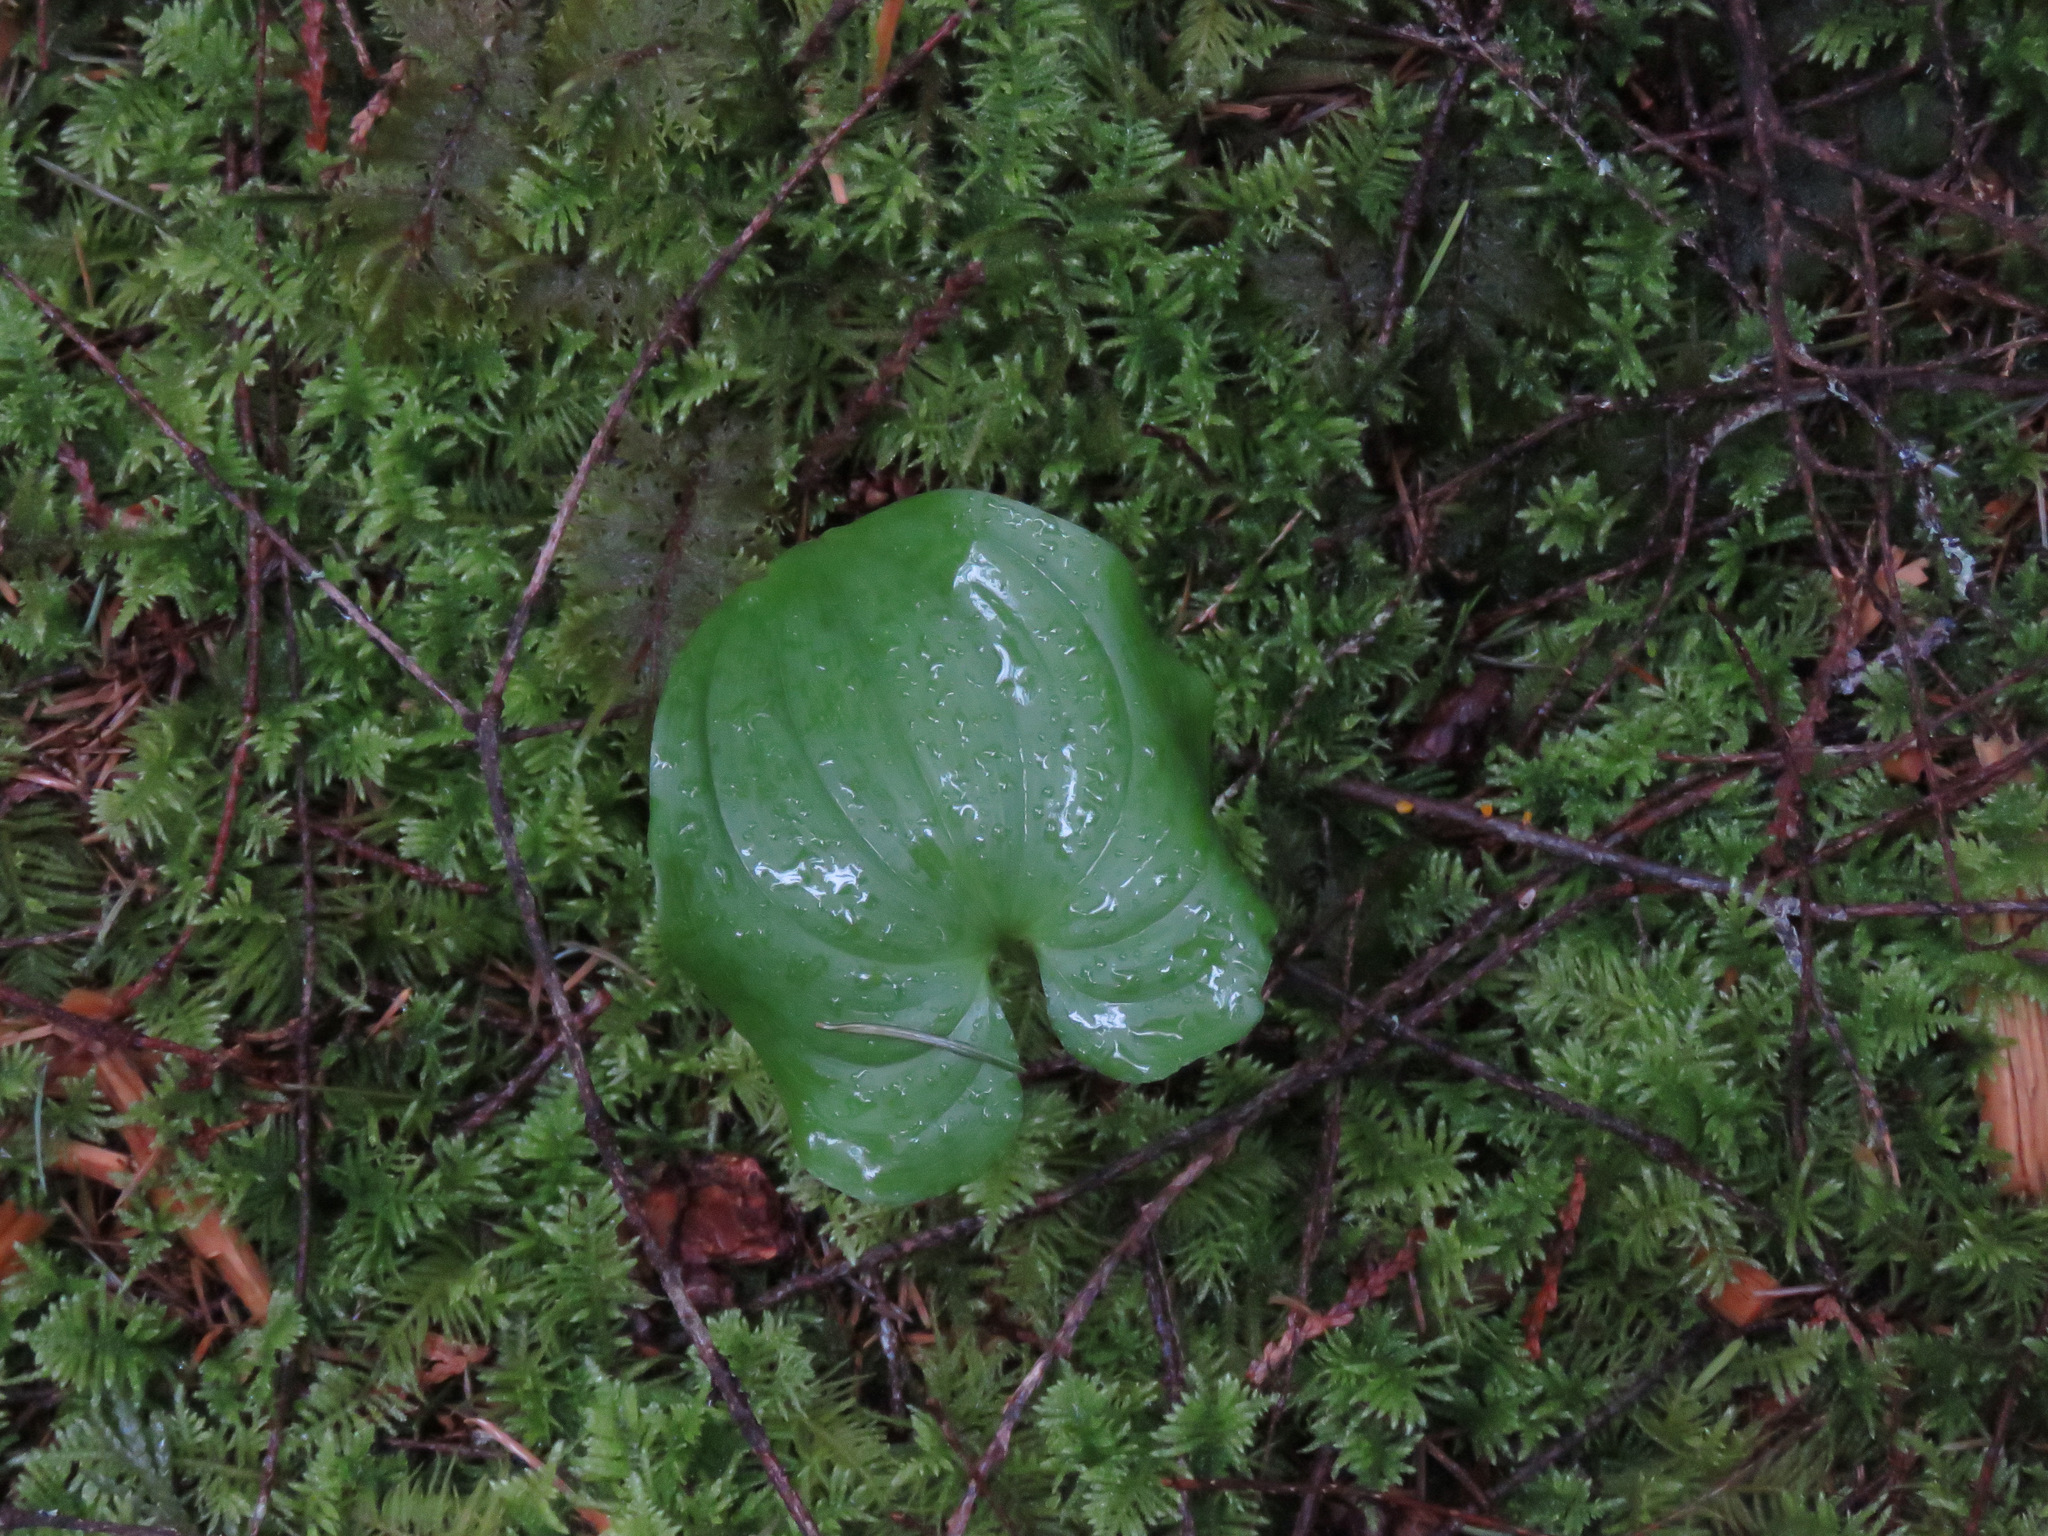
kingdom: Plantae
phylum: Tracheophyta
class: Liliopsida
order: Asparagales
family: Asparagaceae
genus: Maianthemum
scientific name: Maianthemum dilatatum
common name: False lily-of-the-valley
